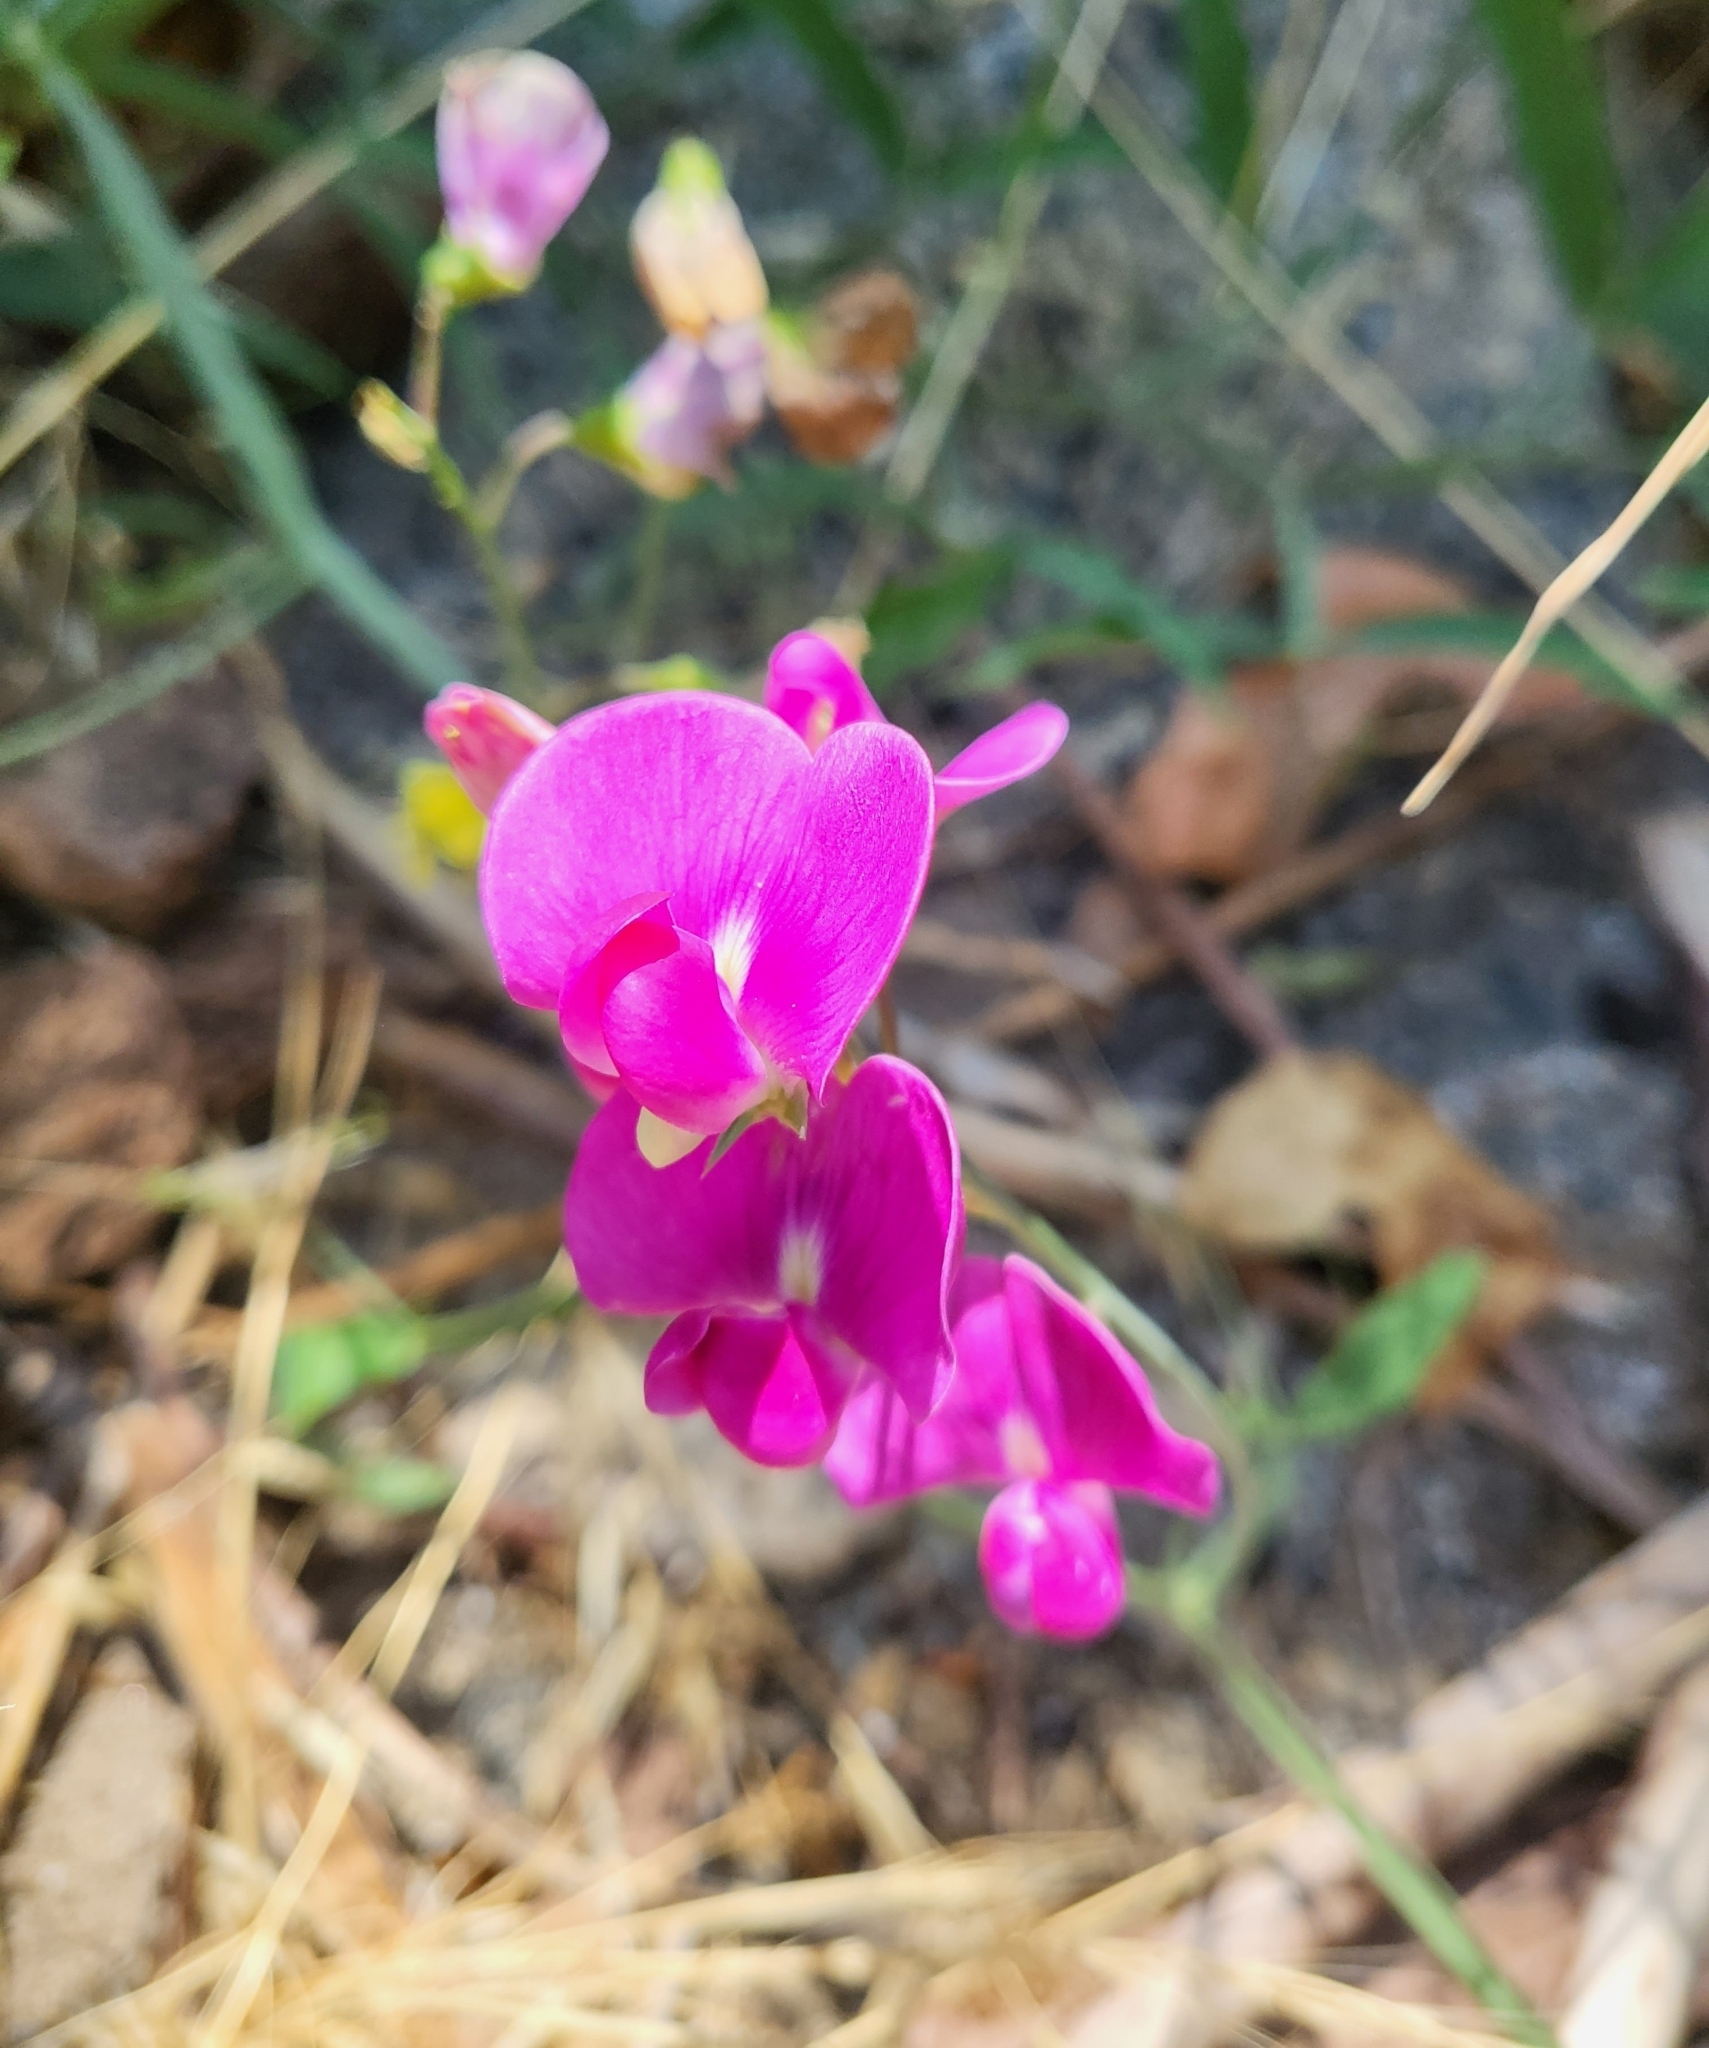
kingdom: Plantae
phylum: Tracheophyta
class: Magnoliopsida
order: Fabales
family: Fabaceae
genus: Lathyrus
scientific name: Lathyrus latifolius
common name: Perennial pea
